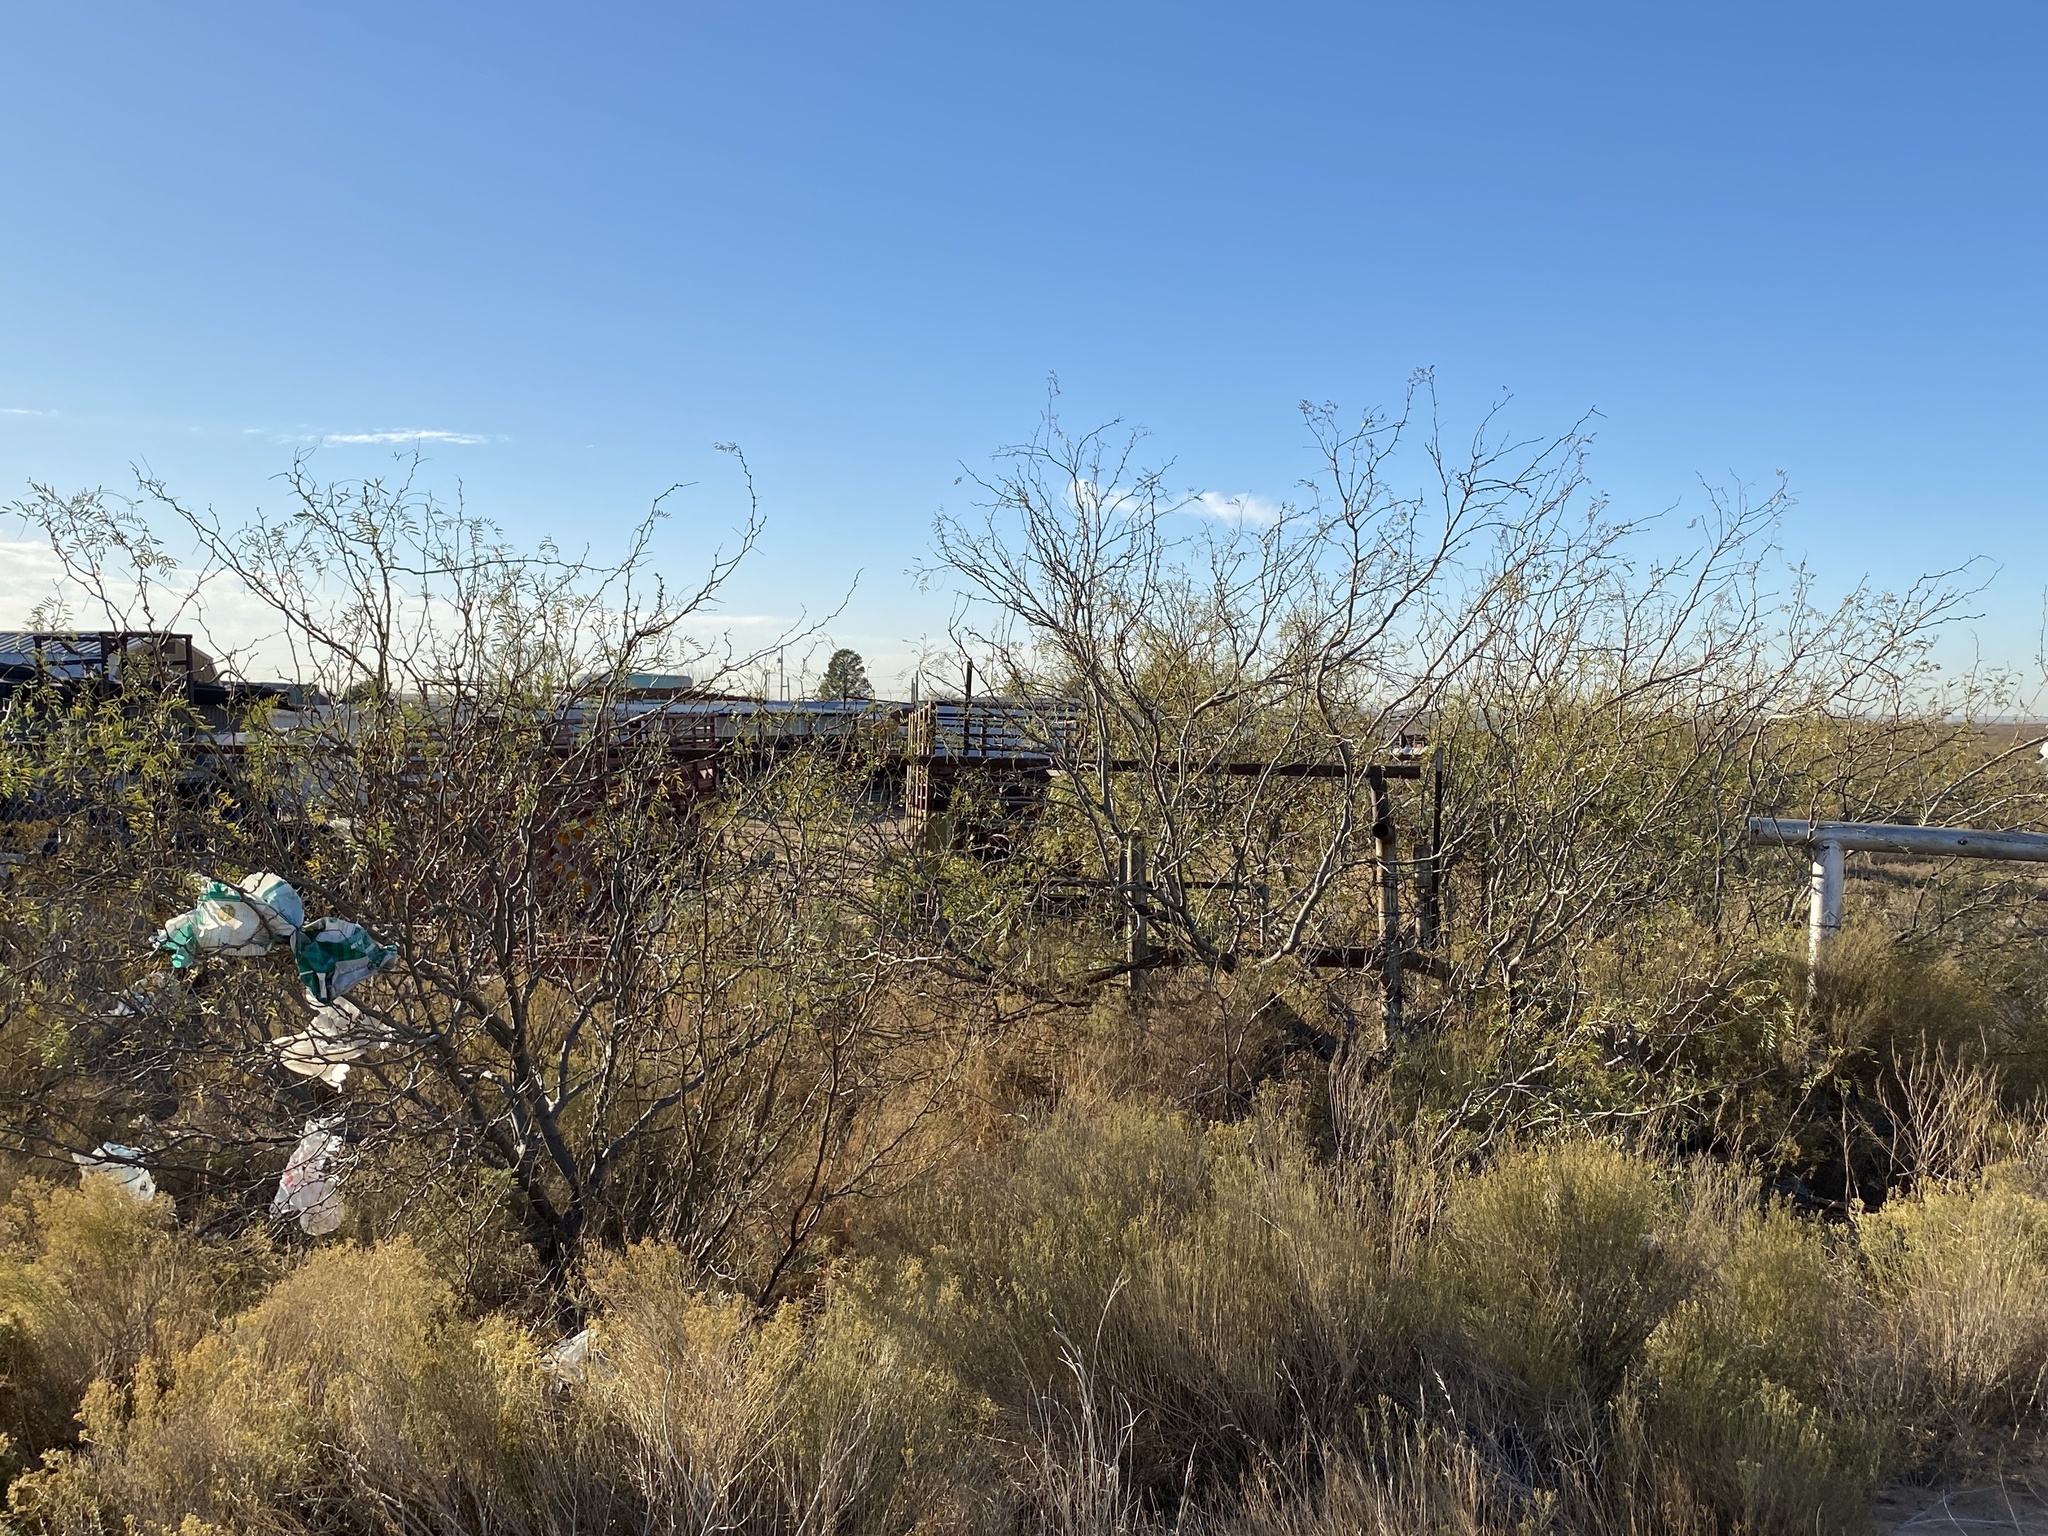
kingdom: Plantae
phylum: Tracheophyta
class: Magnoliopsida
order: Fabales
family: Fabaceae
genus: Prosopis
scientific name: Prosopis glandulosa
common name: Honey mesquite
